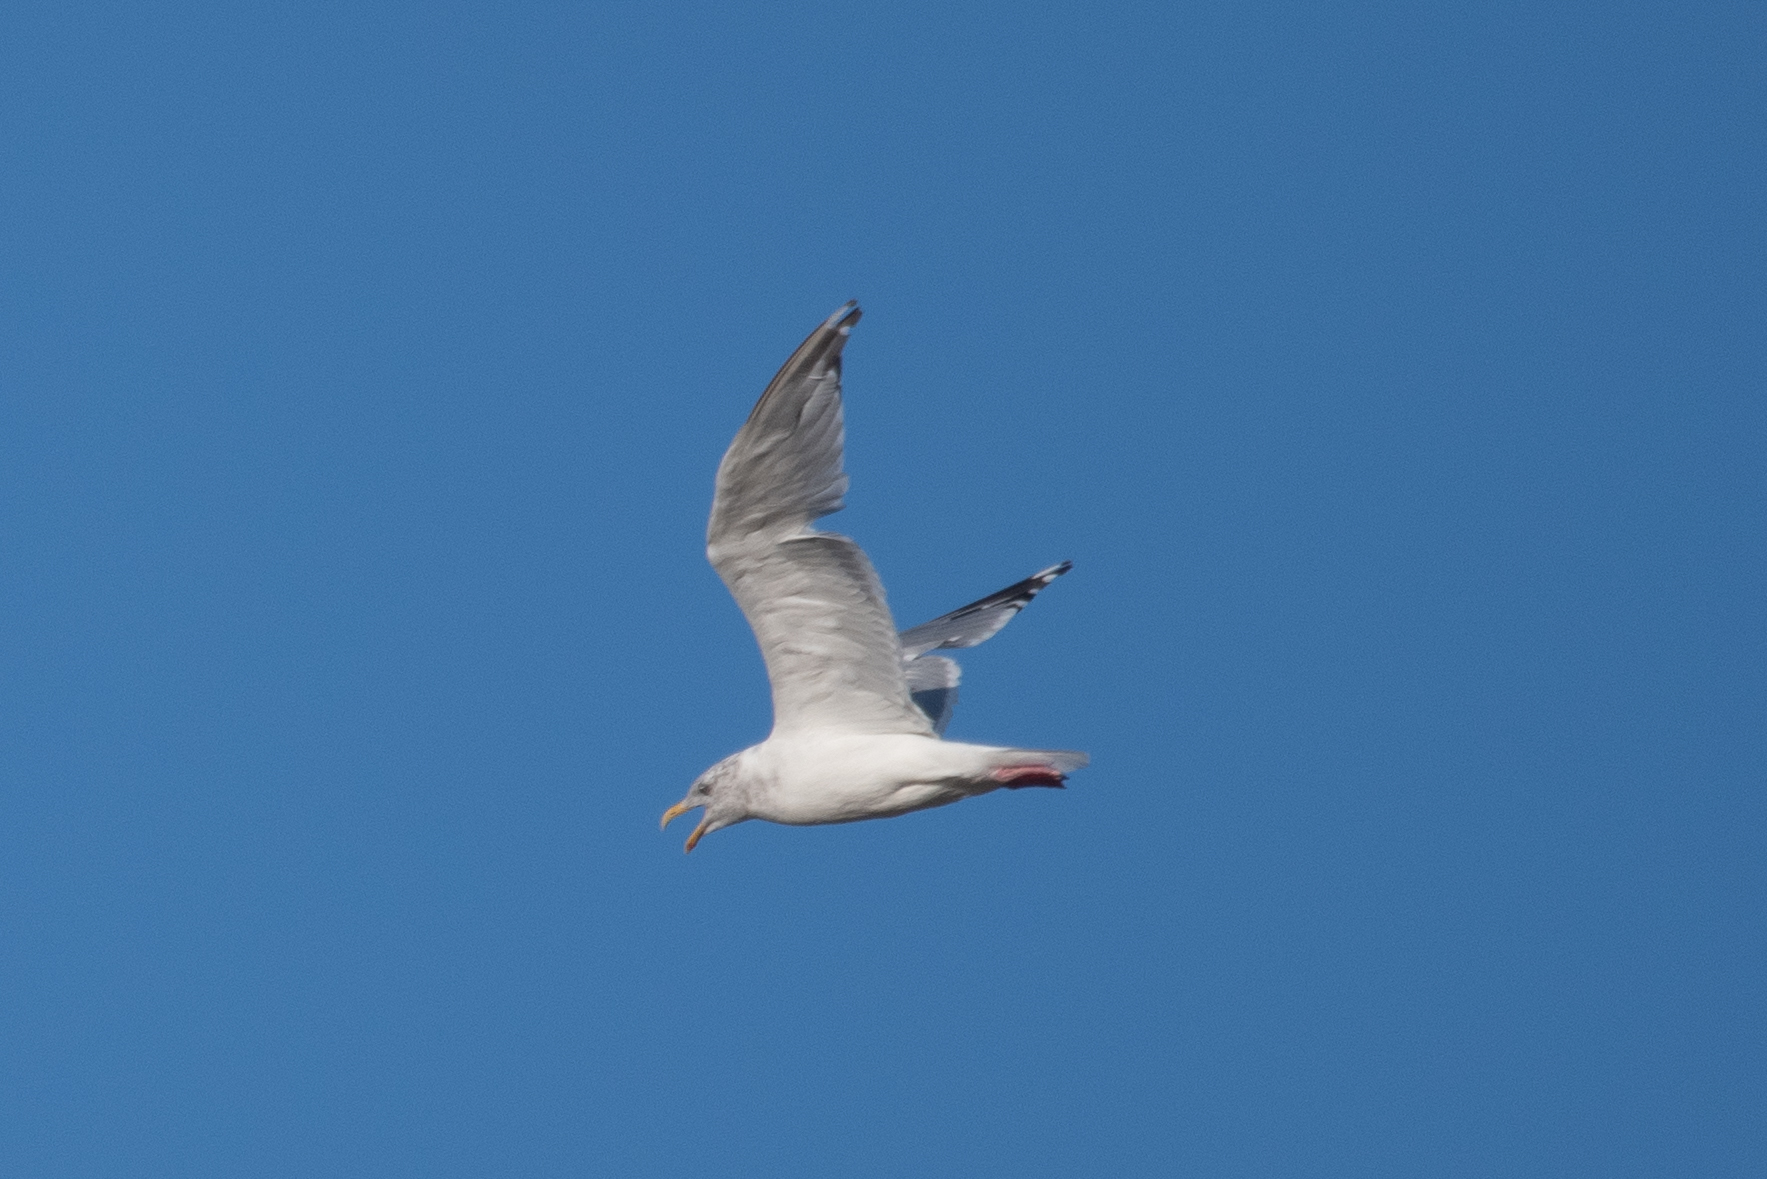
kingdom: Animalia
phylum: Chordata
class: Aves
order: Charadriiformes
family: Laridae
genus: Larus
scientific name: Larus argentatus
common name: Herring gull
